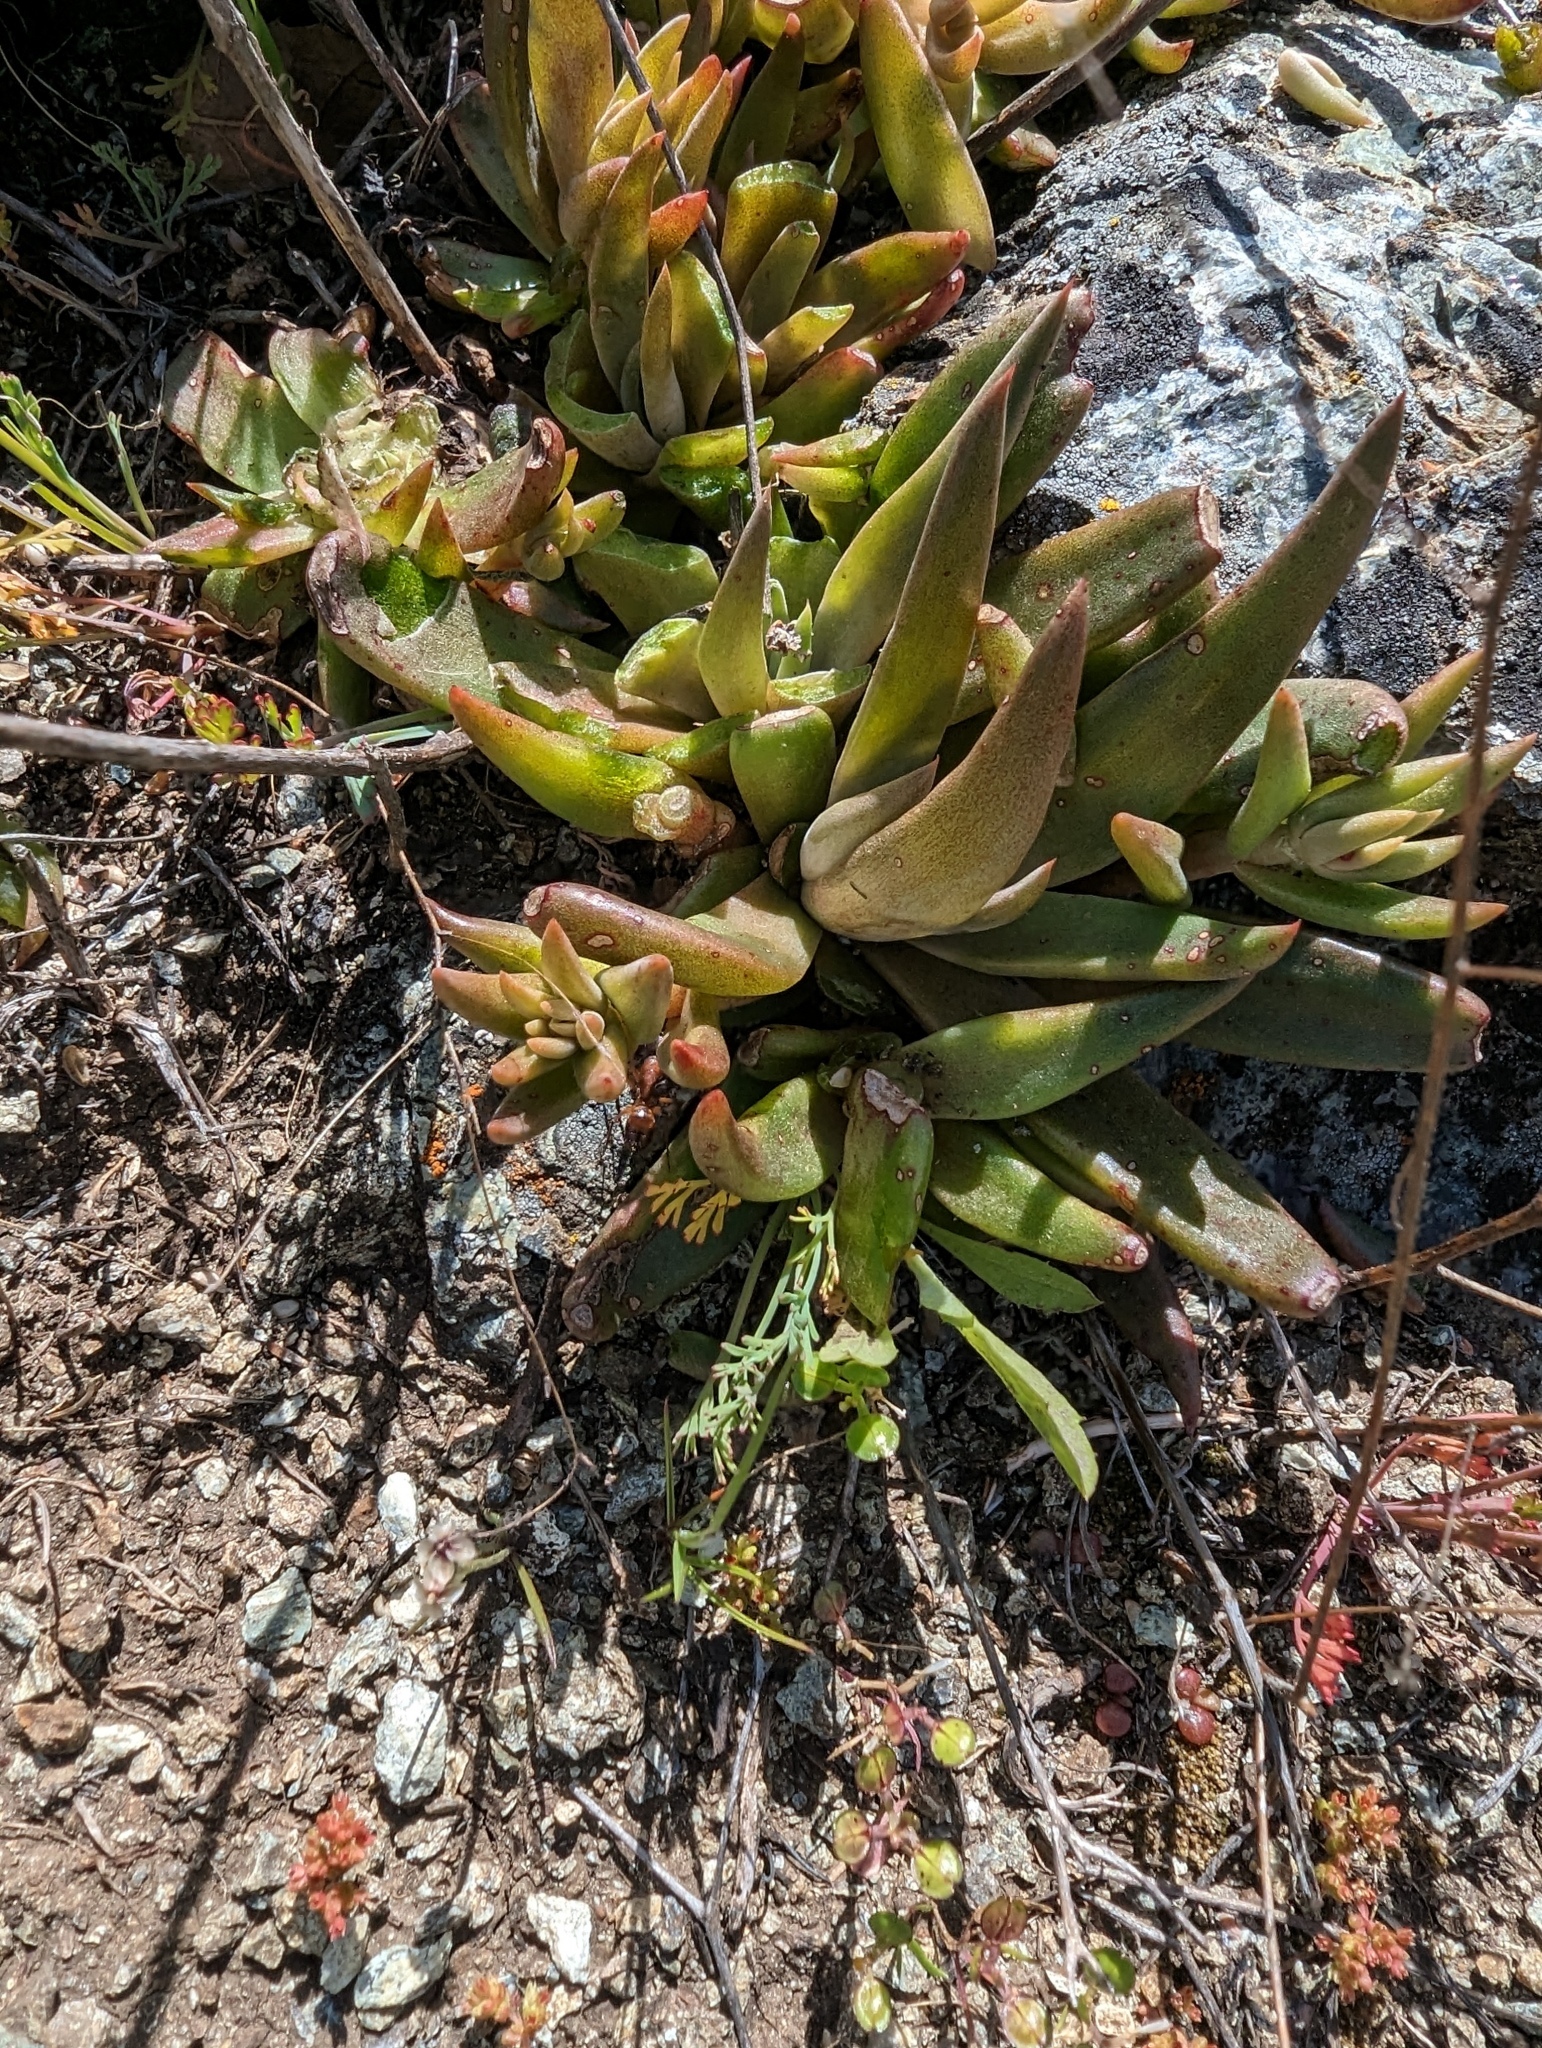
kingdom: Plantae
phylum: Tracheophyta
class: Magnoliopsida
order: Saxifragales
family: Crassulaceae
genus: Dudleya
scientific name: Dudleya abramsii
